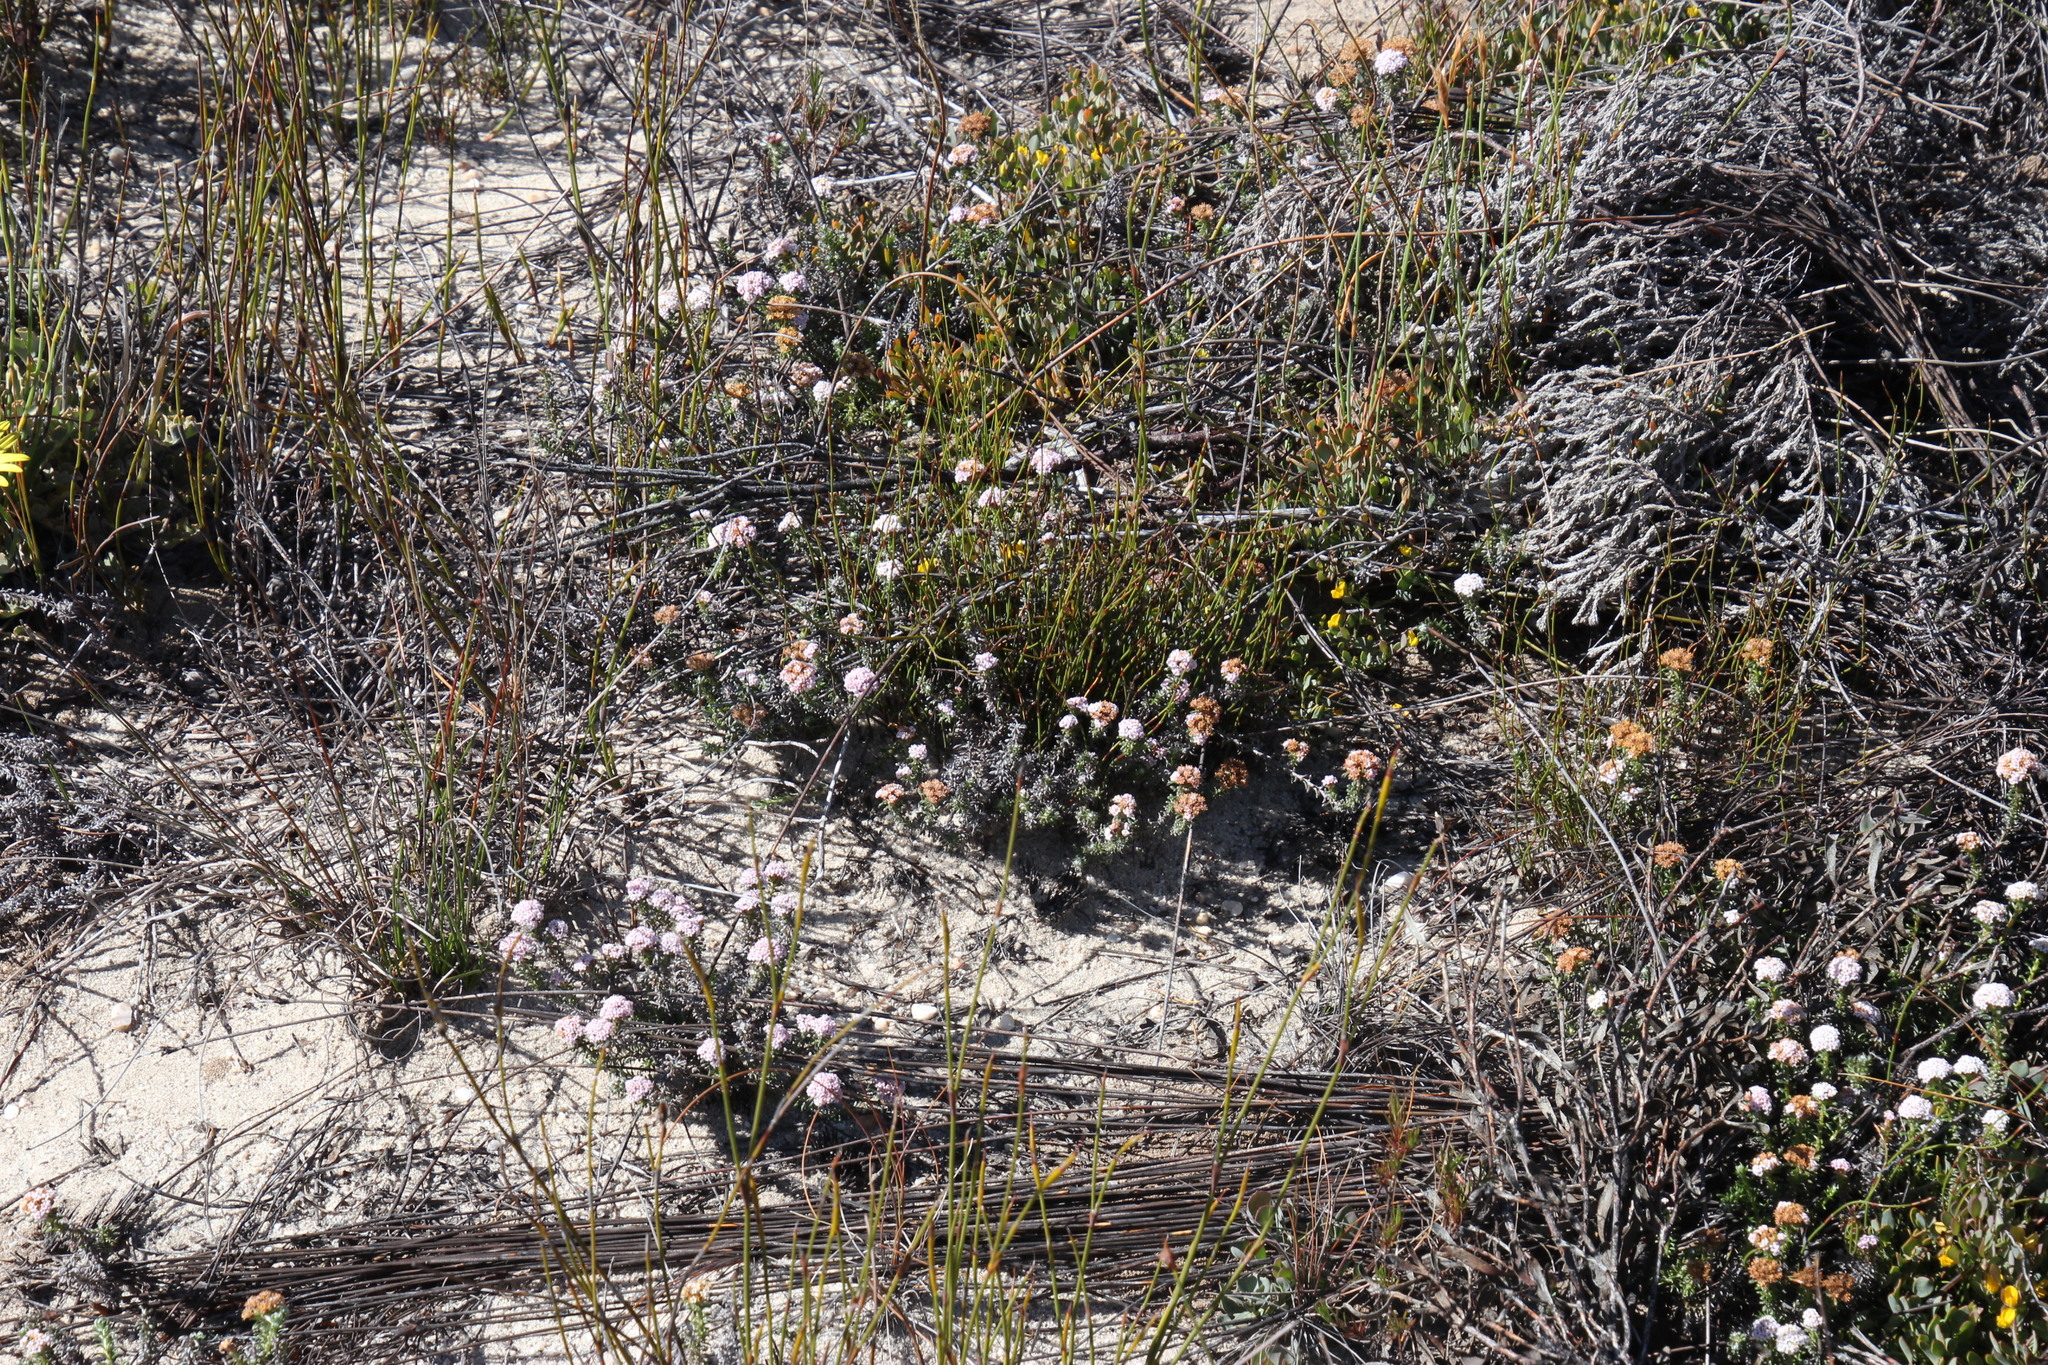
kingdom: Plantae
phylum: Tracheophyta
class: Magnoliopsida
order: Asterales
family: Asteraceae
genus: Elytropappus
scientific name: Elytropappus hispidus
